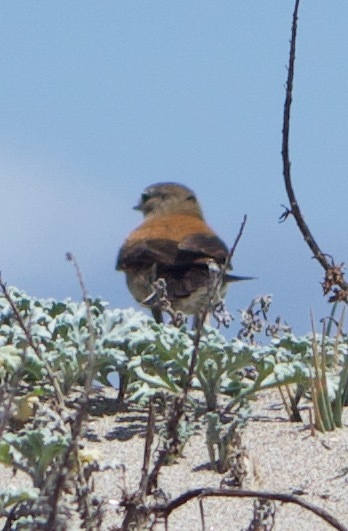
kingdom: Animalia
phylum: Chordata
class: Aves
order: Passeriformes
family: Tyrannidae
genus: Lessonia
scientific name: Lessonia rufa
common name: Austral negrito
